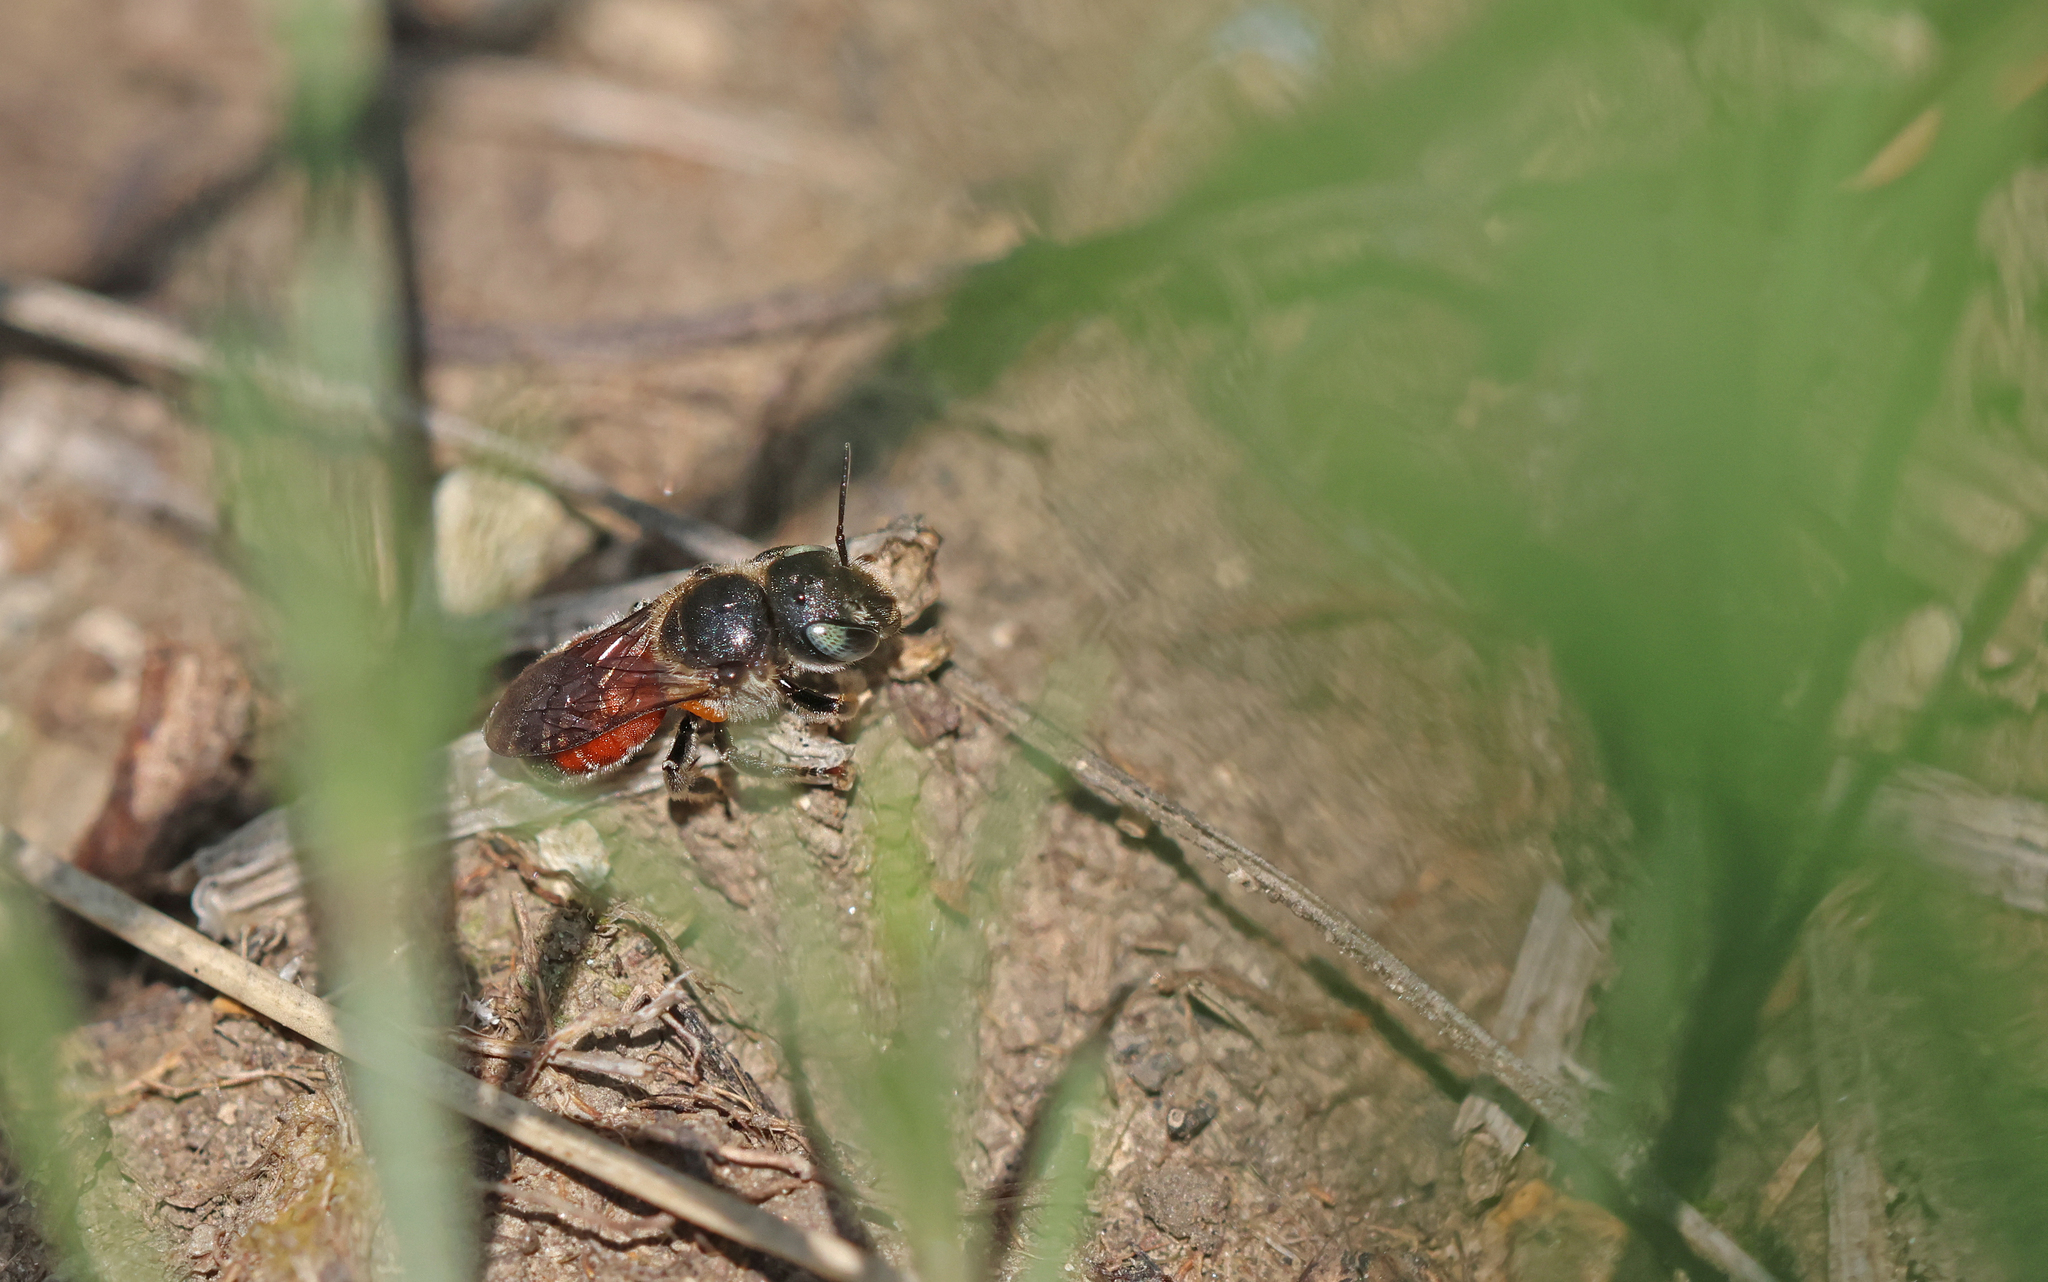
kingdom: Animalia
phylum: Arthropoda
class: Insecta
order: Hymenoptera
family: Megachilidae
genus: Osmia
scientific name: Osmia andrenoides
